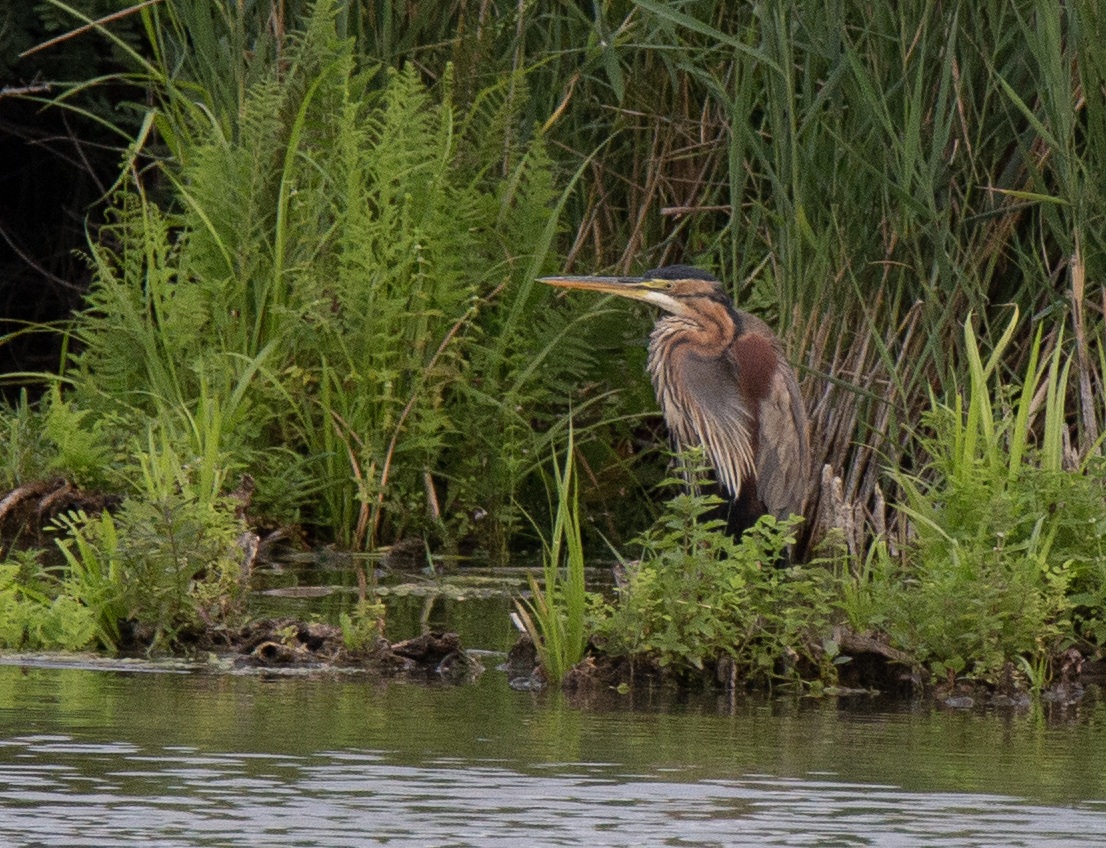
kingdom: Animalia
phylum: Chordata
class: Aves
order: Pelecaniformes
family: Ardeidae
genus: Ardea
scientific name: Ardea purpurea
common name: Purple heron
